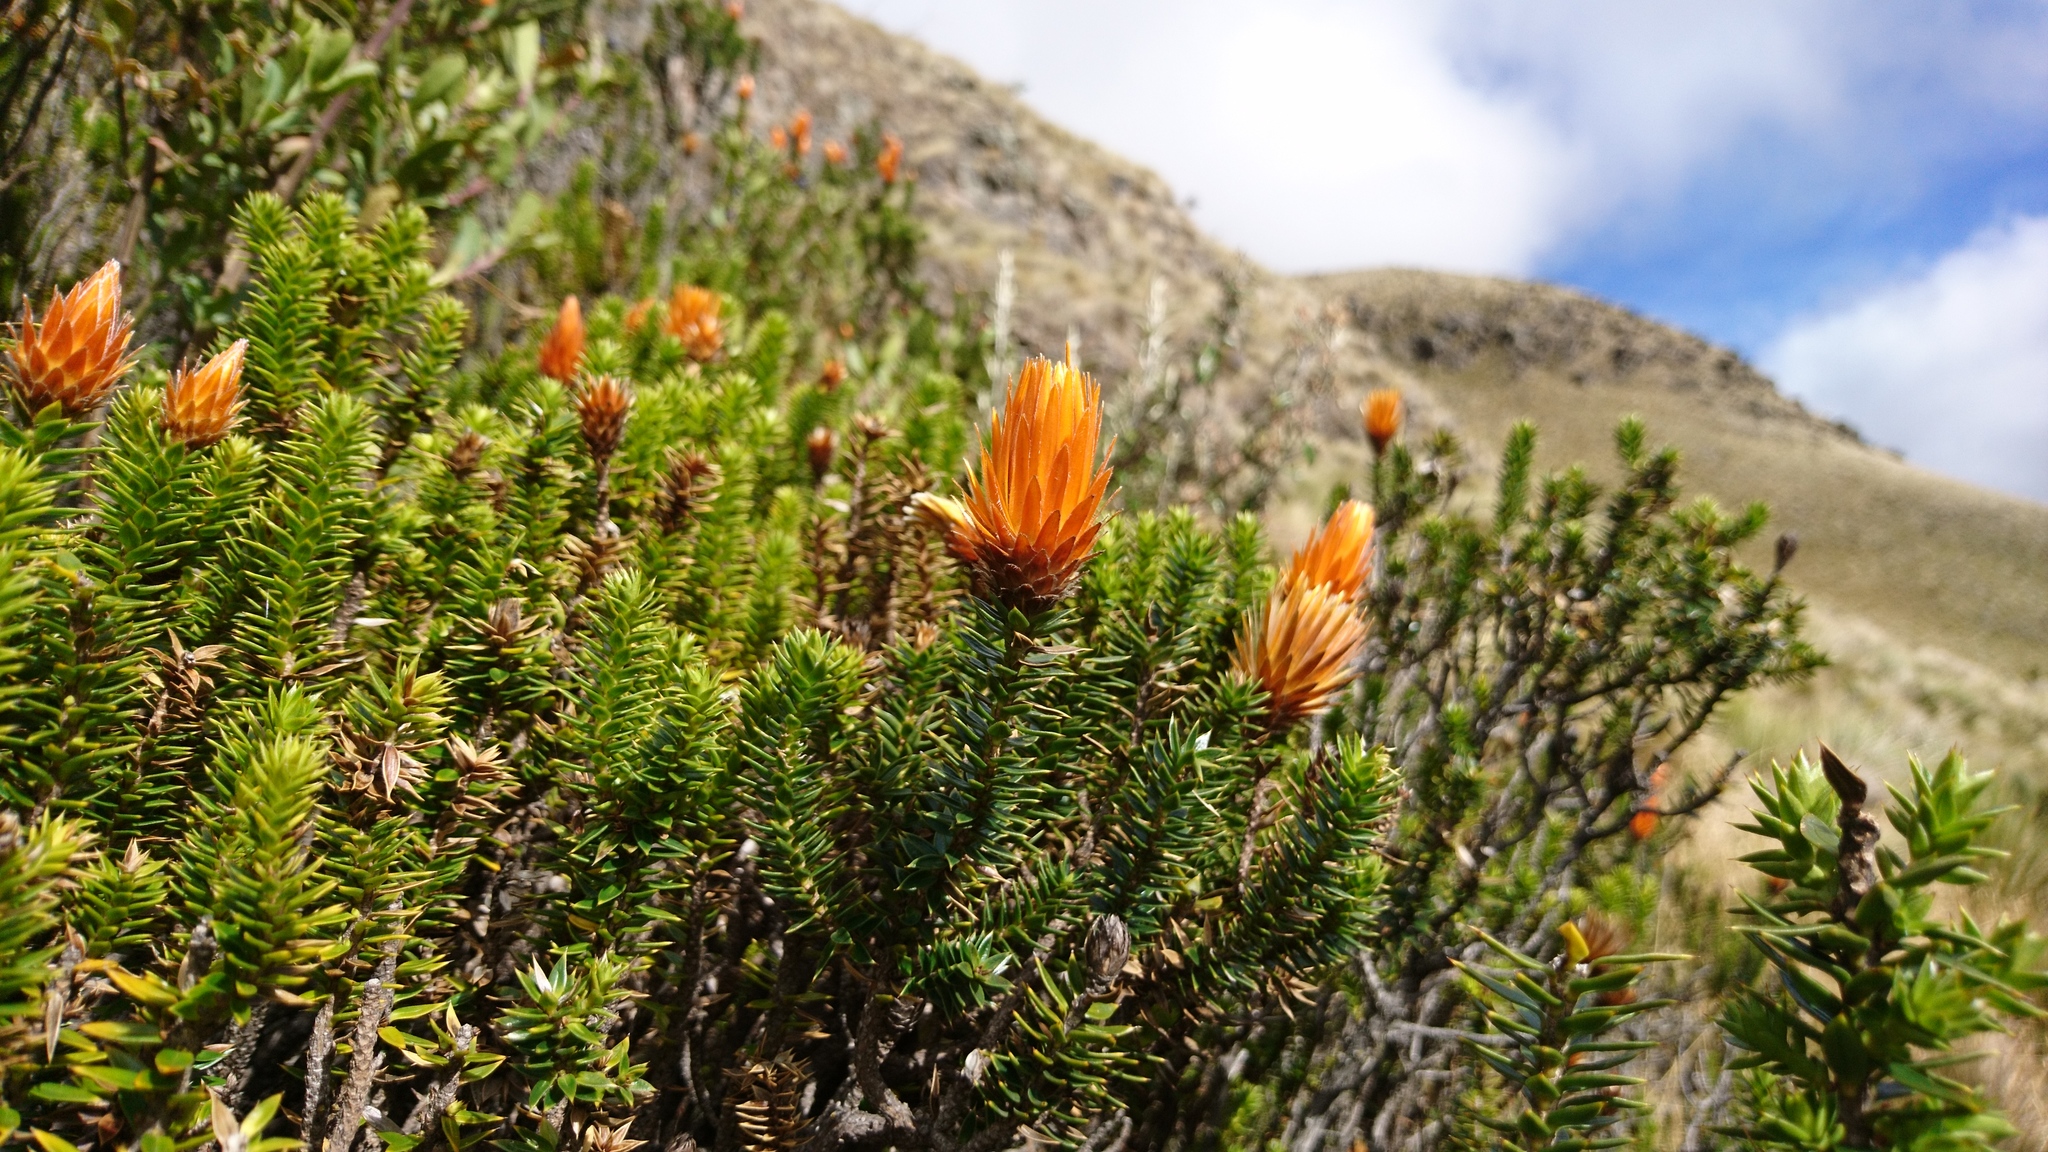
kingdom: Plantae
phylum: Tracheophyta
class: Magnoliopsida
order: Asterales
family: Asteraceae
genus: Chuquiraga
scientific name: Chuquiraga jussieui
